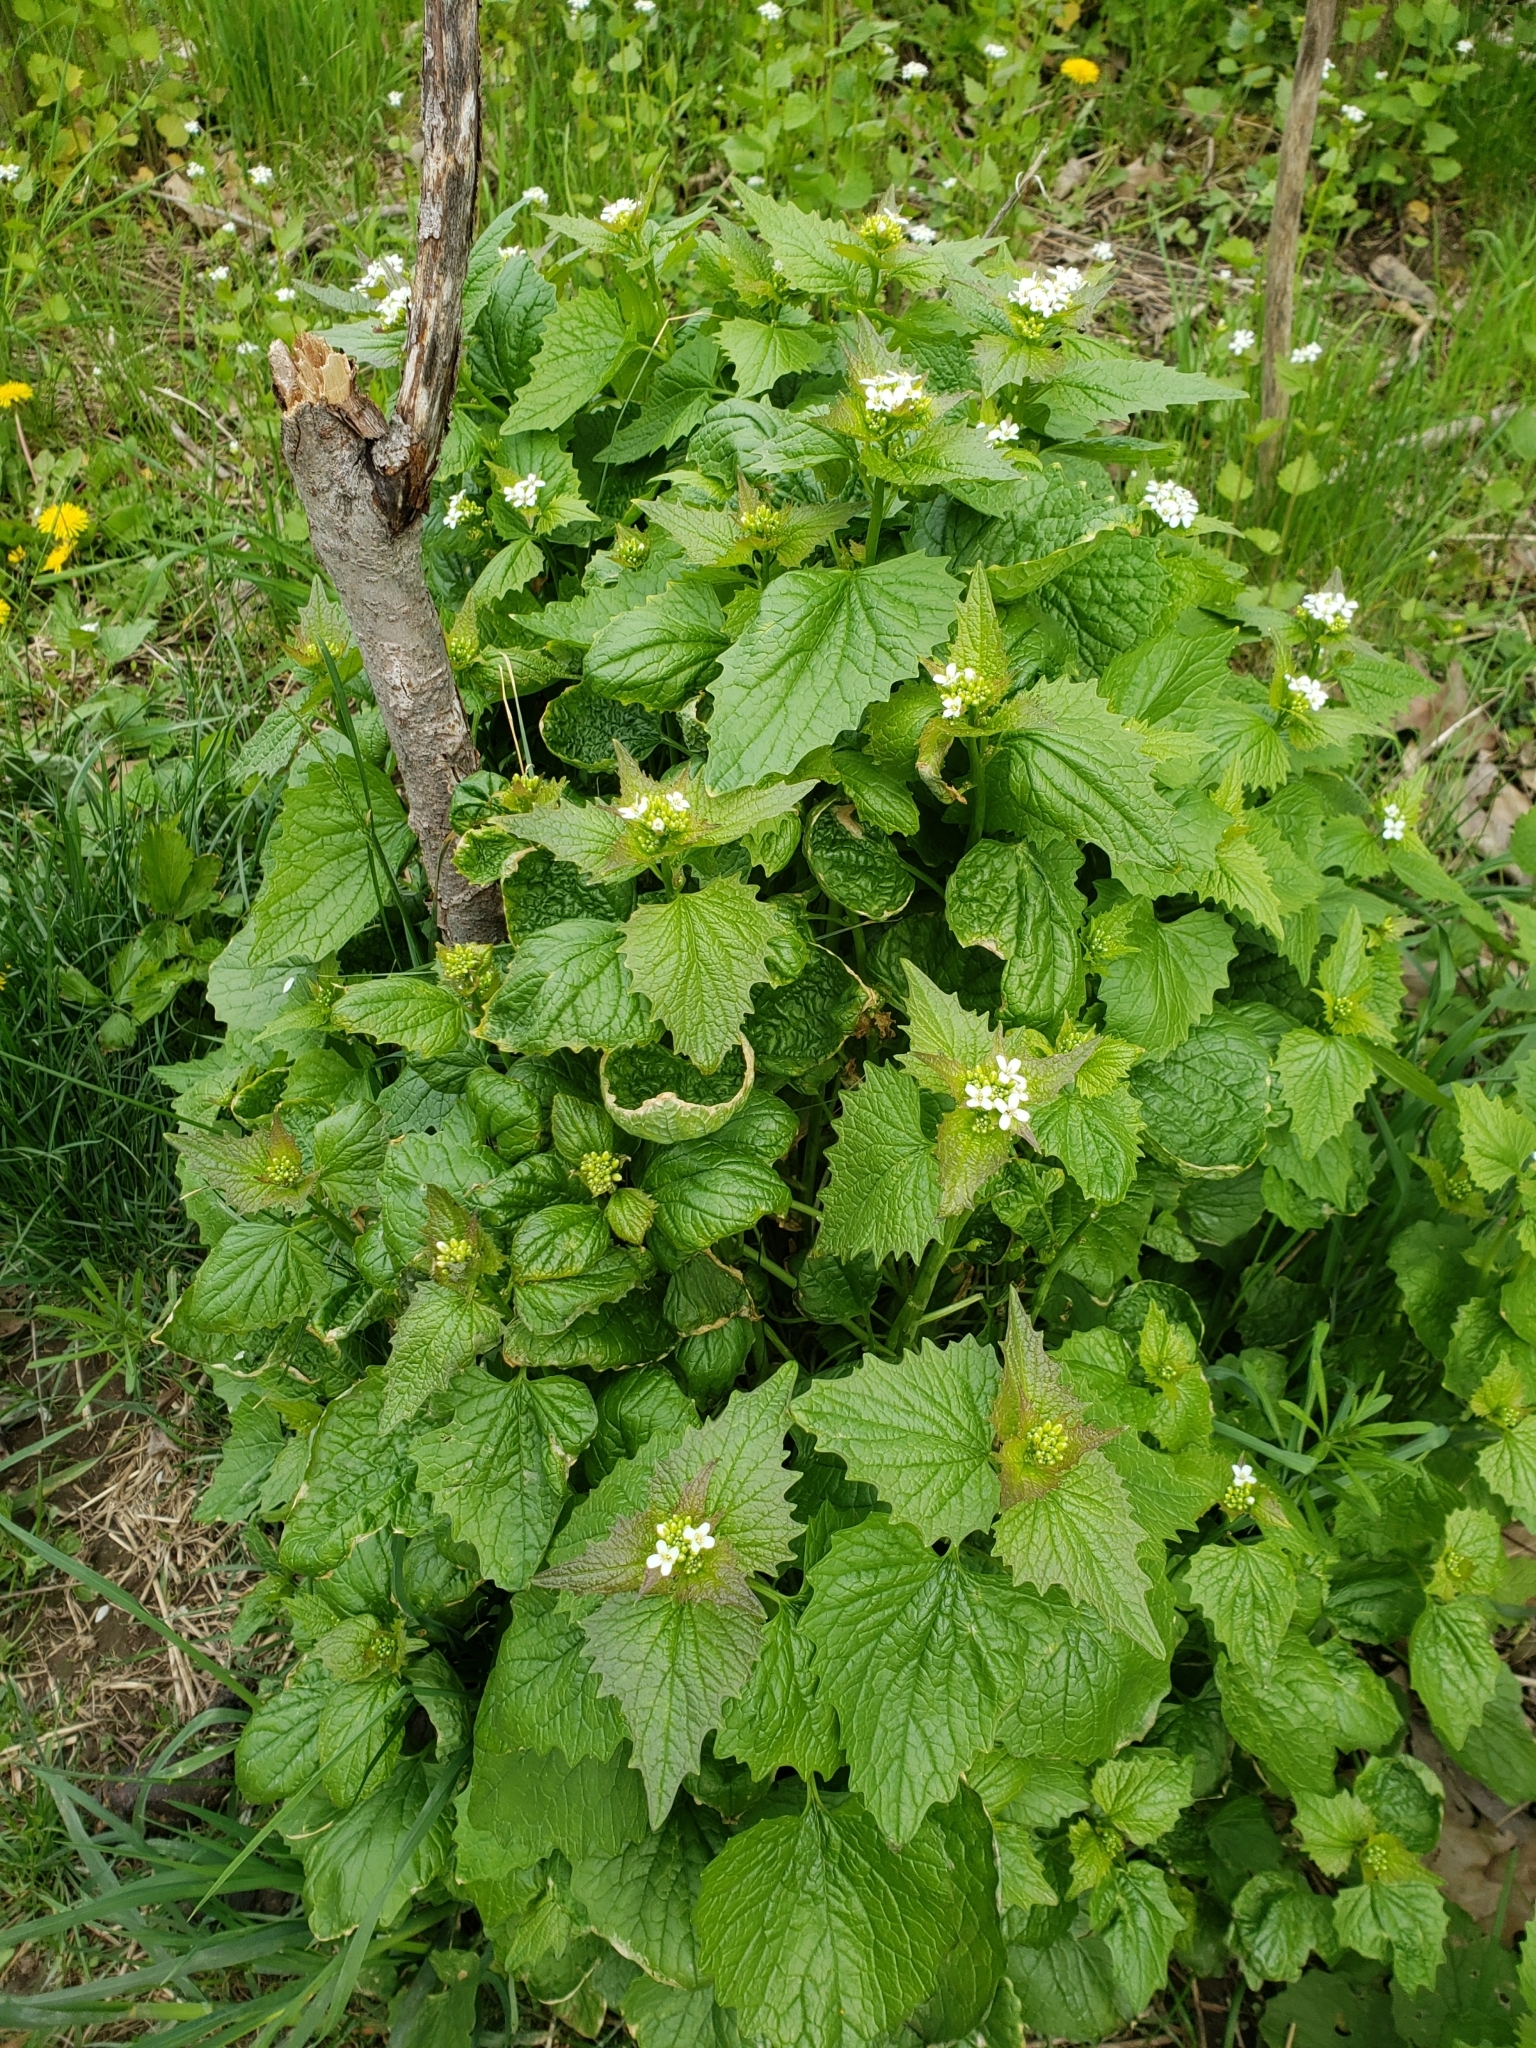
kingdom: Plantae
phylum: Tracheophyta
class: Magnoliopsida
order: Brassicales
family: Brassicaceae
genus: Alliaria
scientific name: Alliaria petiolata
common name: Garlic mustard
